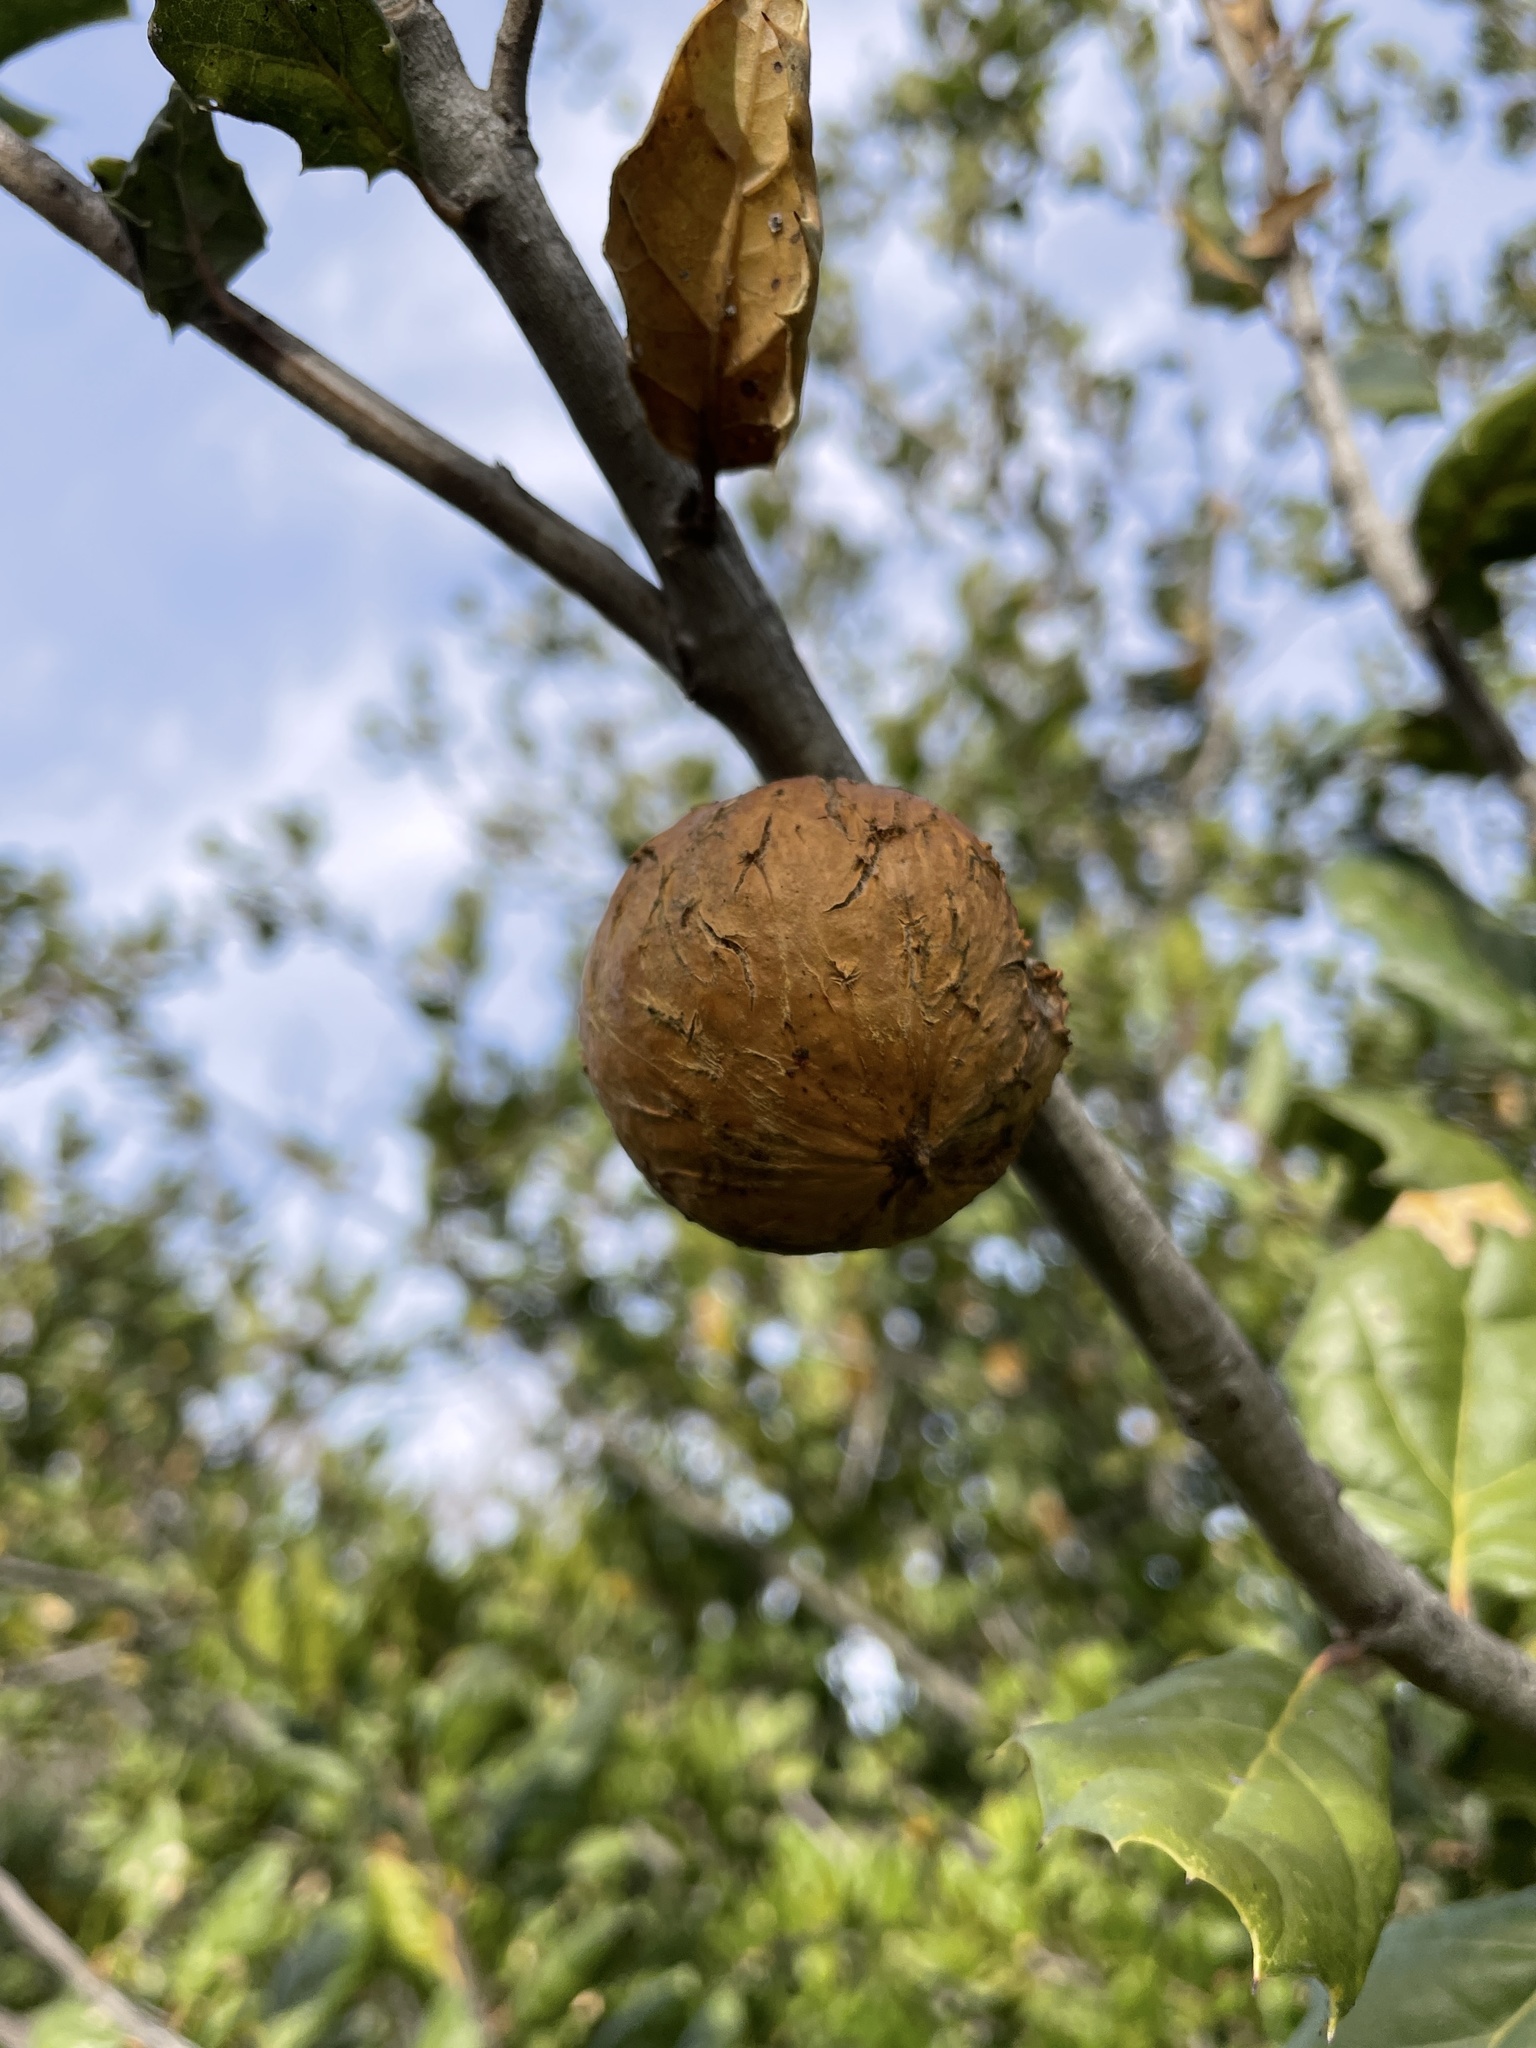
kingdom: Animalia
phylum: Arthropoda
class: Insecta
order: Hymenoptera
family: Cynipidae
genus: Amphibolips
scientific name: Amphibolips quercuspomiformis
